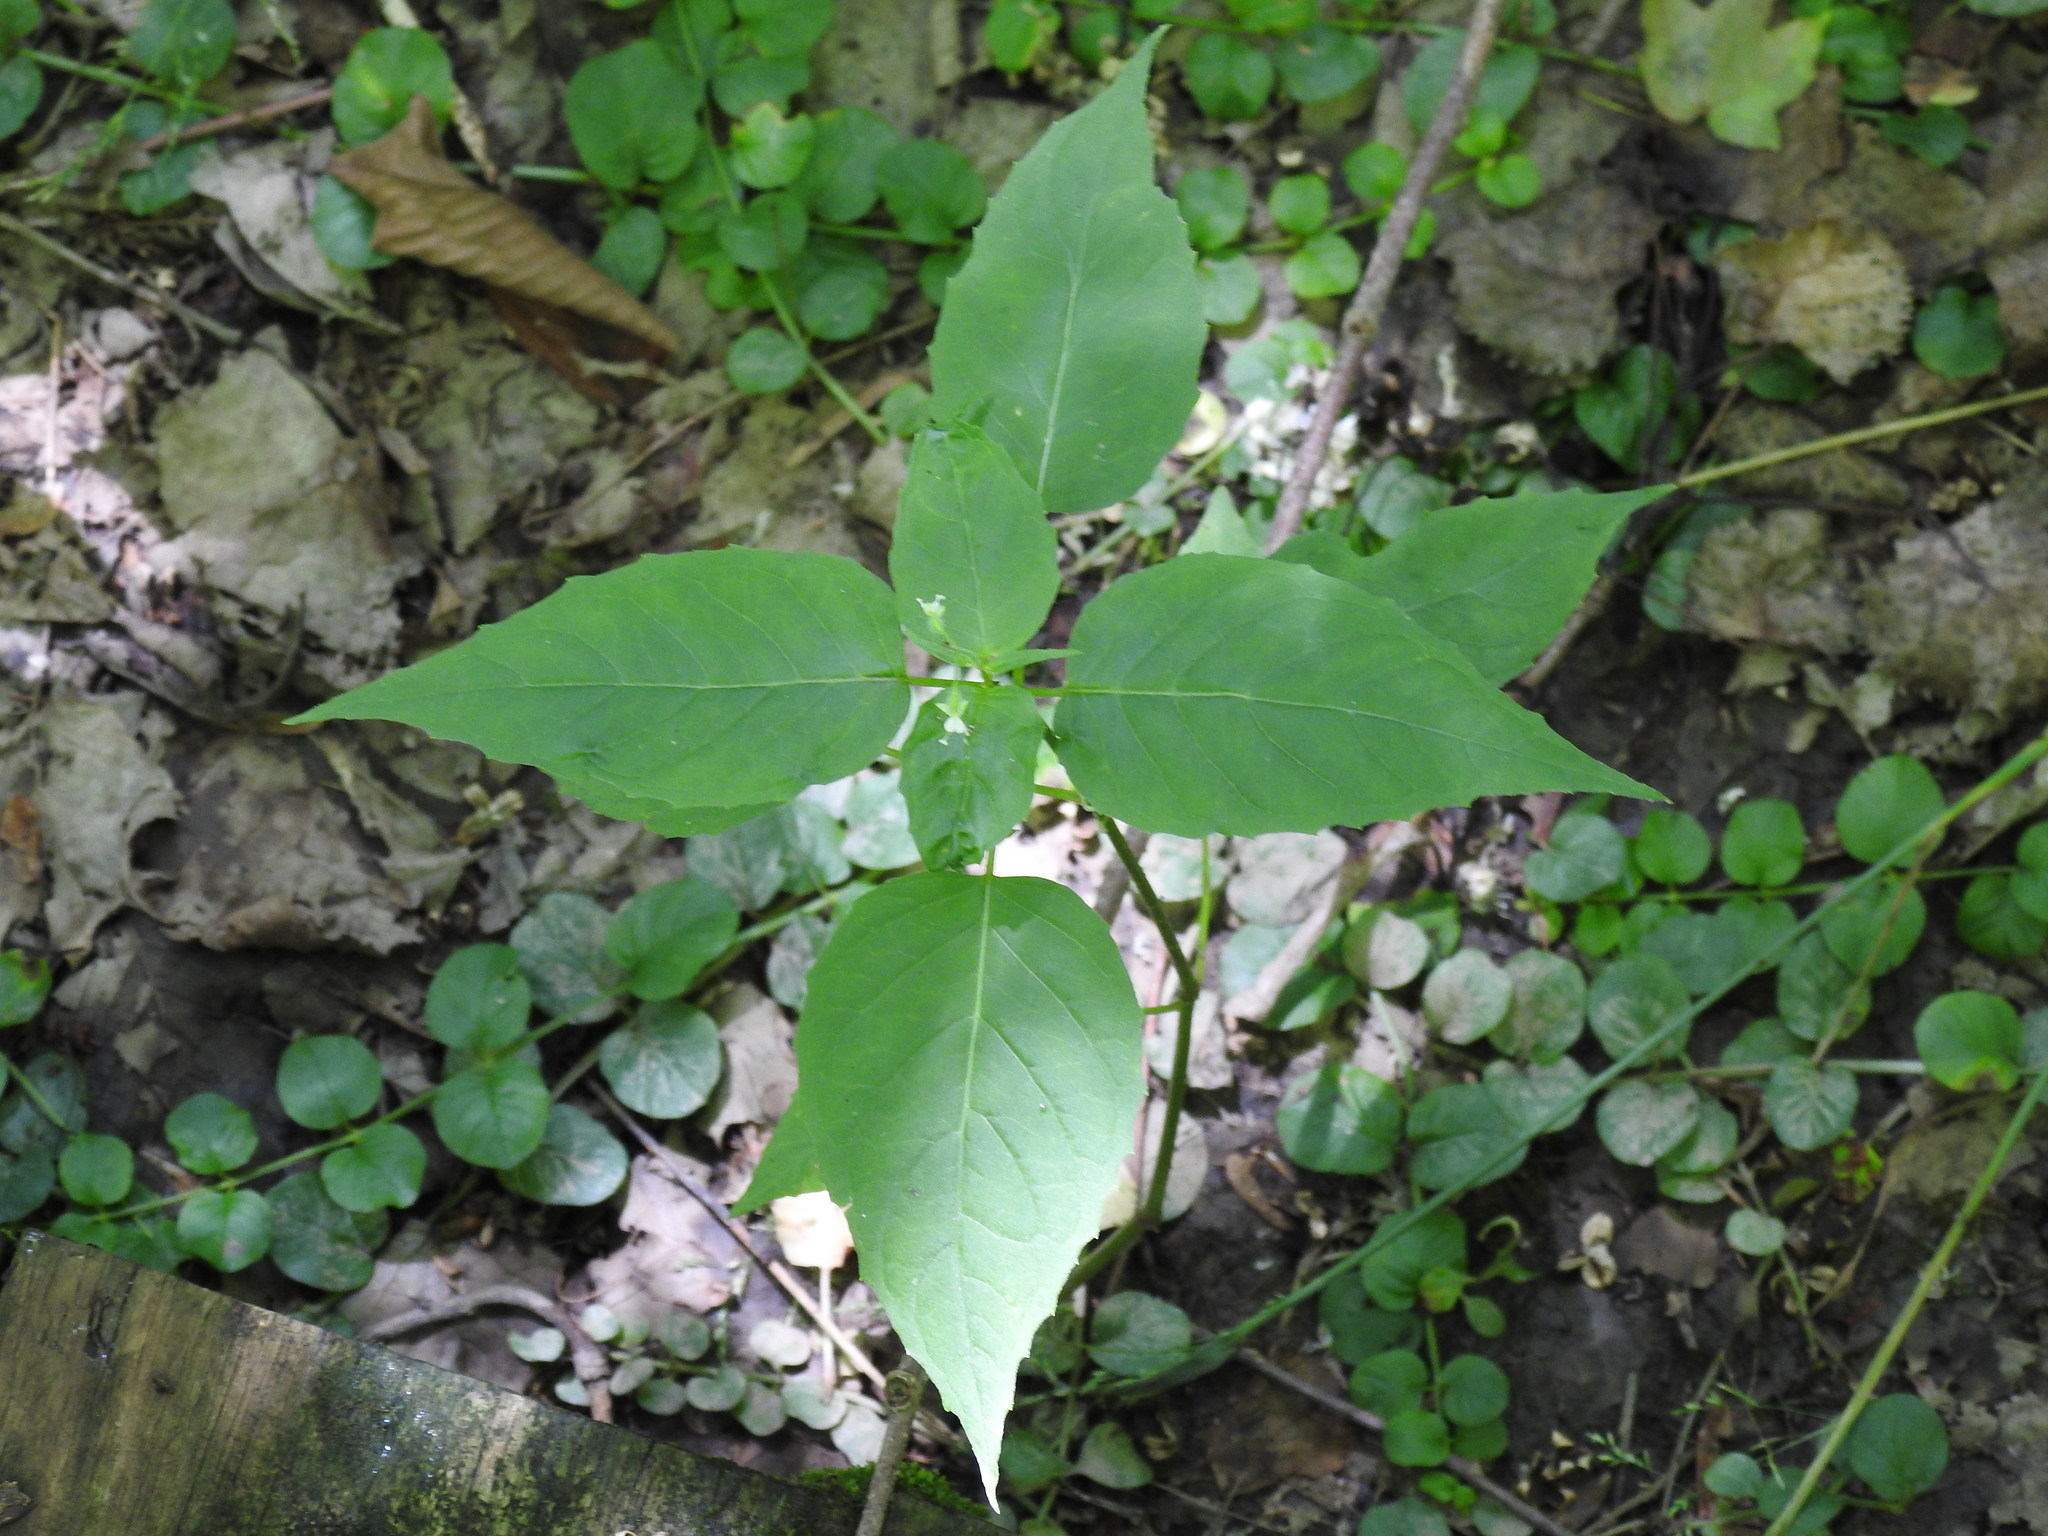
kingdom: Plantae
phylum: Tracheophyta
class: Magnoliopsida
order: Myrtales
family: Onagraceae
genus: Circaea
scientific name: Circaea canadensis
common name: Broad-leaved enchanter's nightshade
